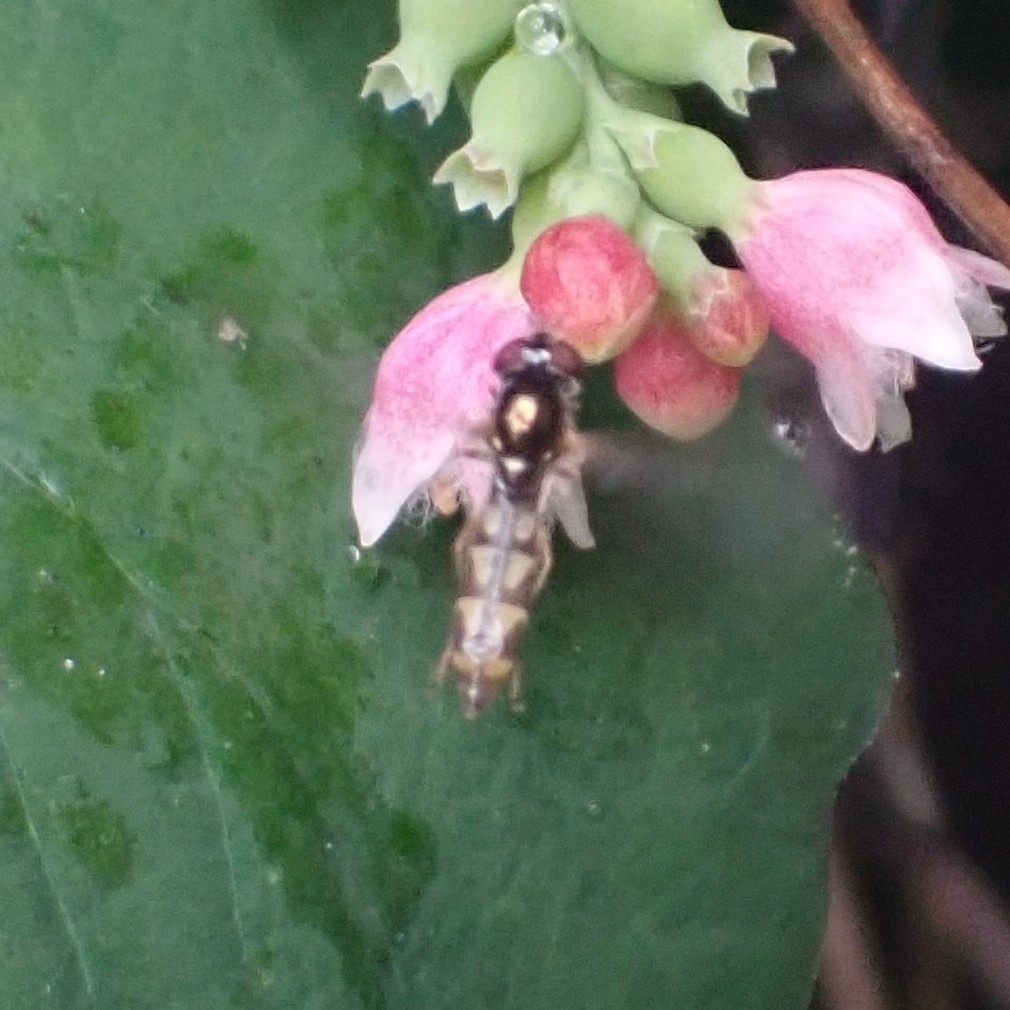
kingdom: Animalia
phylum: Arthropoda
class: Insecta
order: Diptera
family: Syrphidae
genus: Melanostoma
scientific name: Melanostoma
